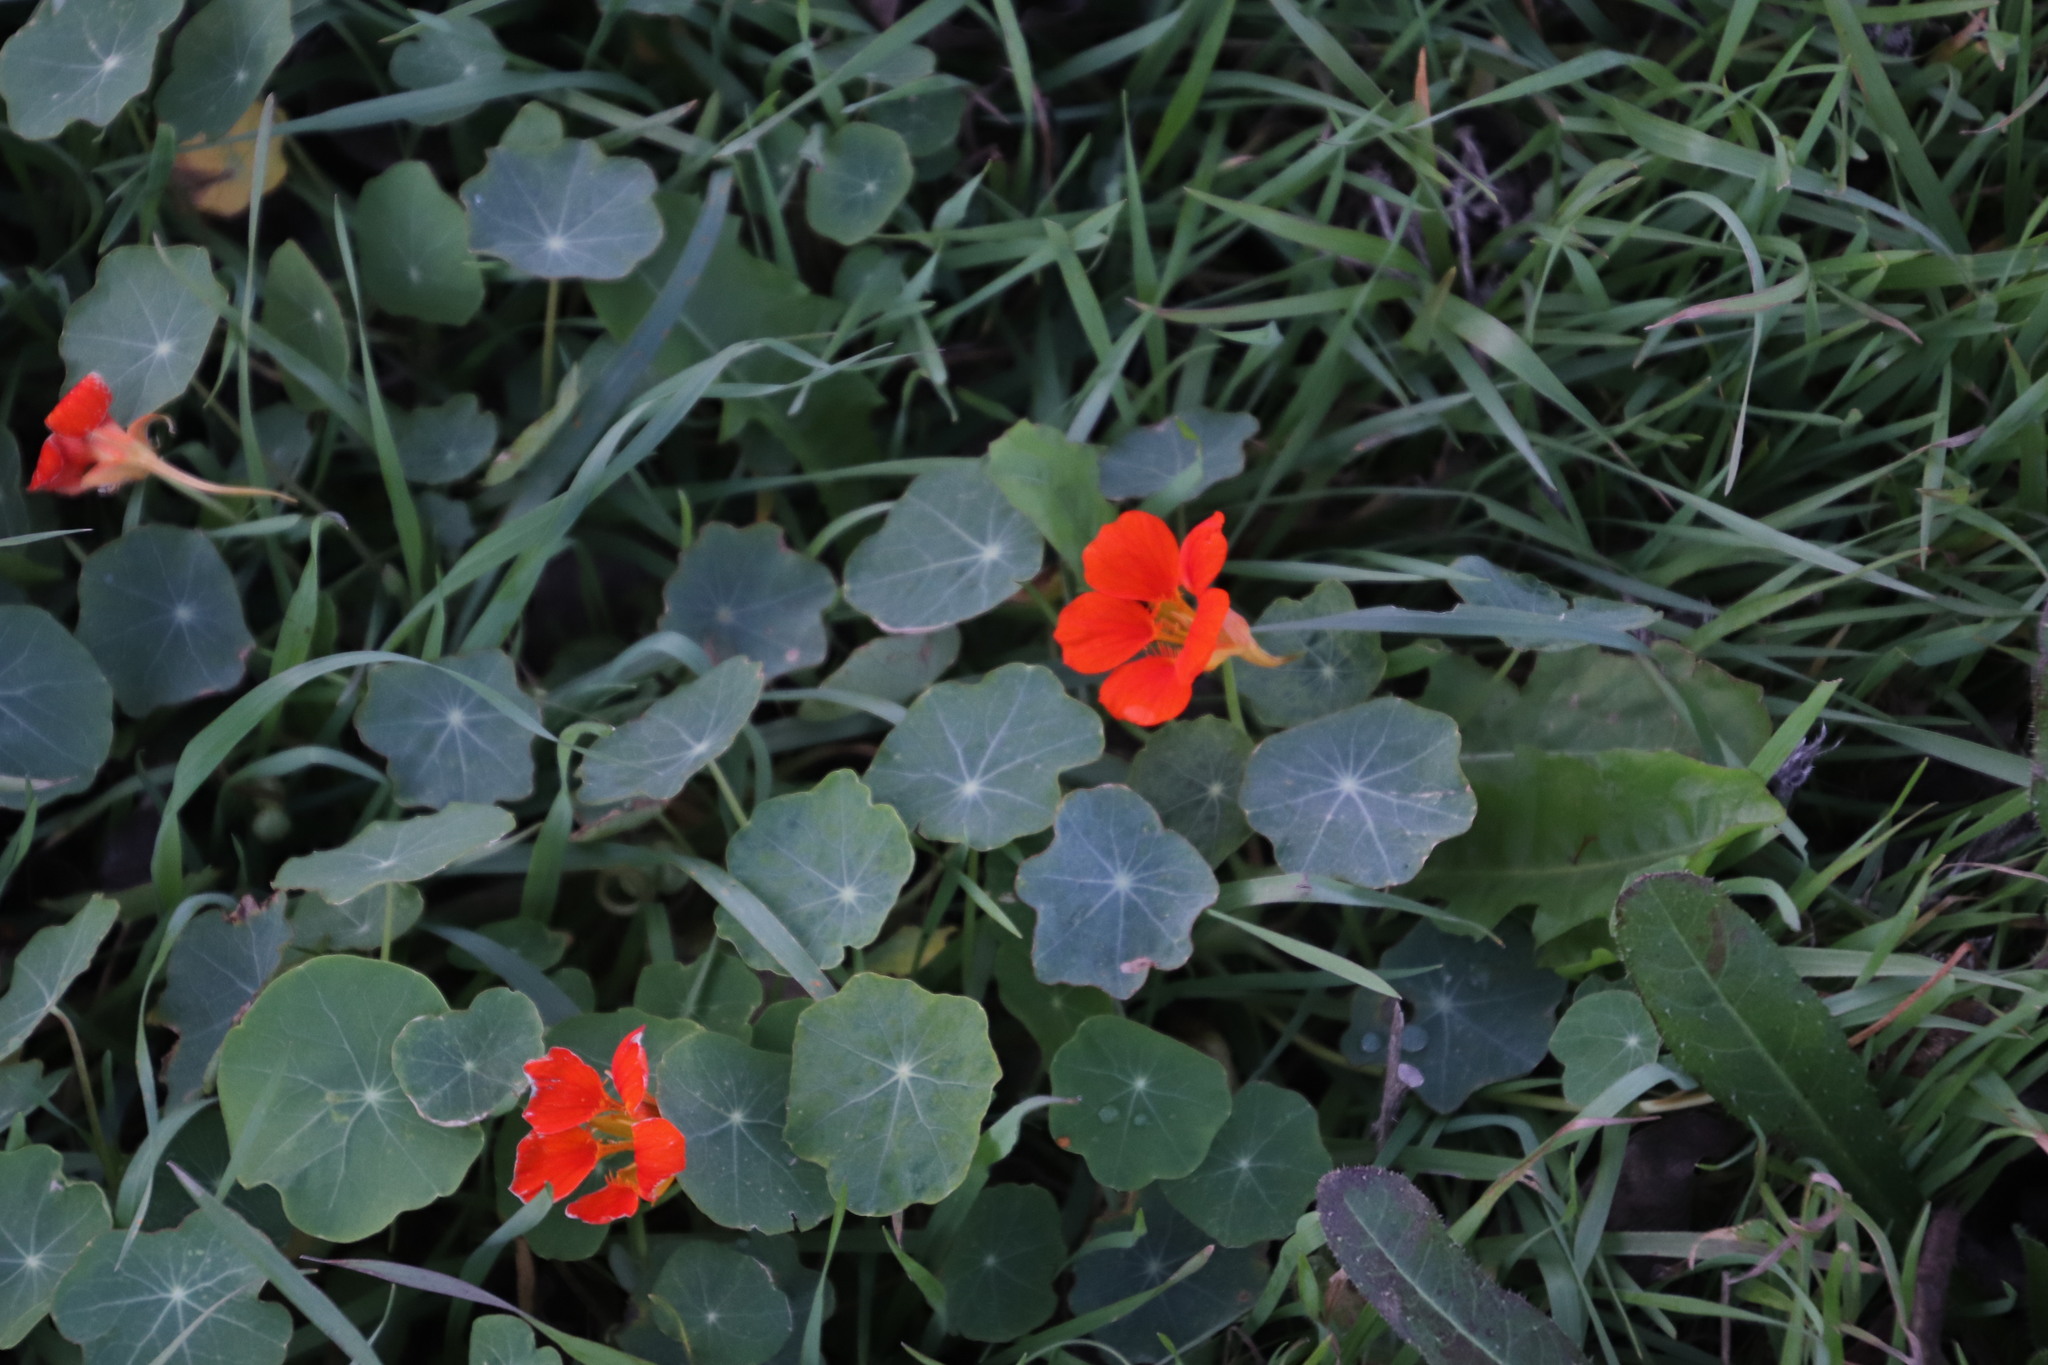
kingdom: Plantae
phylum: Tracheophyta
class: Magnoliopsida
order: Brassicales
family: Tropaeolaceae
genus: Tropaeolum
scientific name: Tropaeolum majus
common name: Nasturtium
